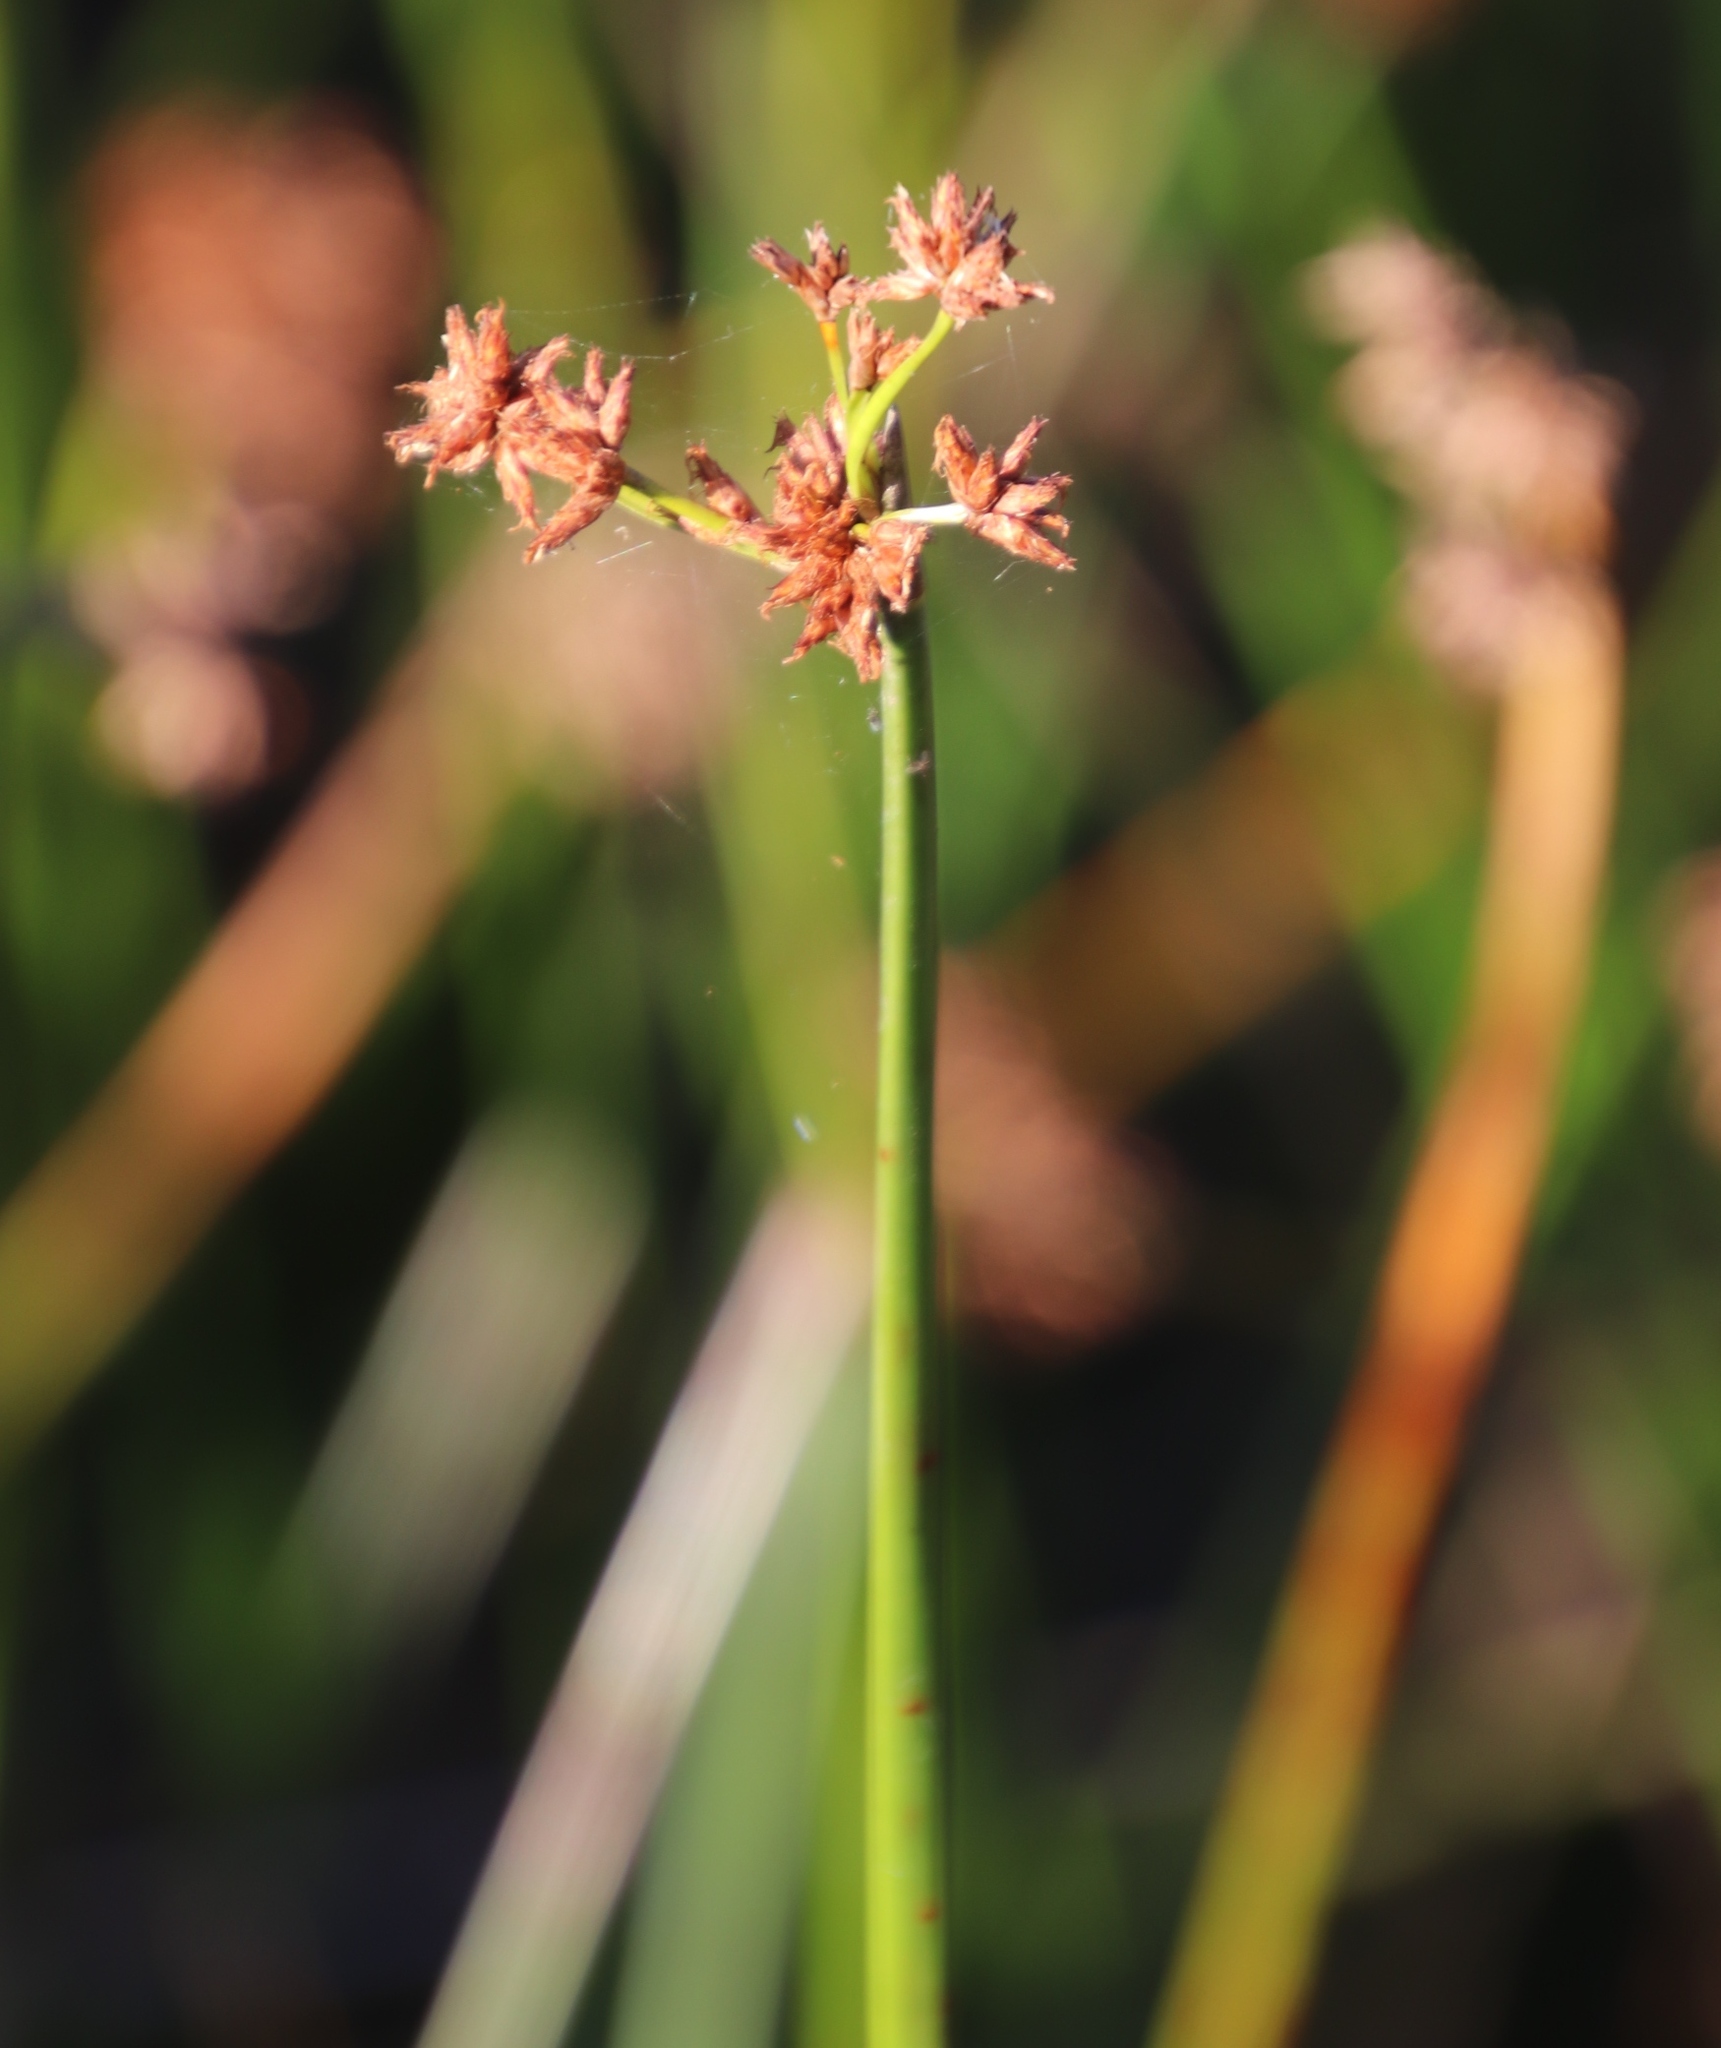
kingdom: Plantae
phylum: Tracheophyta
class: Liliopsida
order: Poales
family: Cyperaceae
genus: Schoenoplectiella
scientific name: Schoenoplectiella brachyceras
